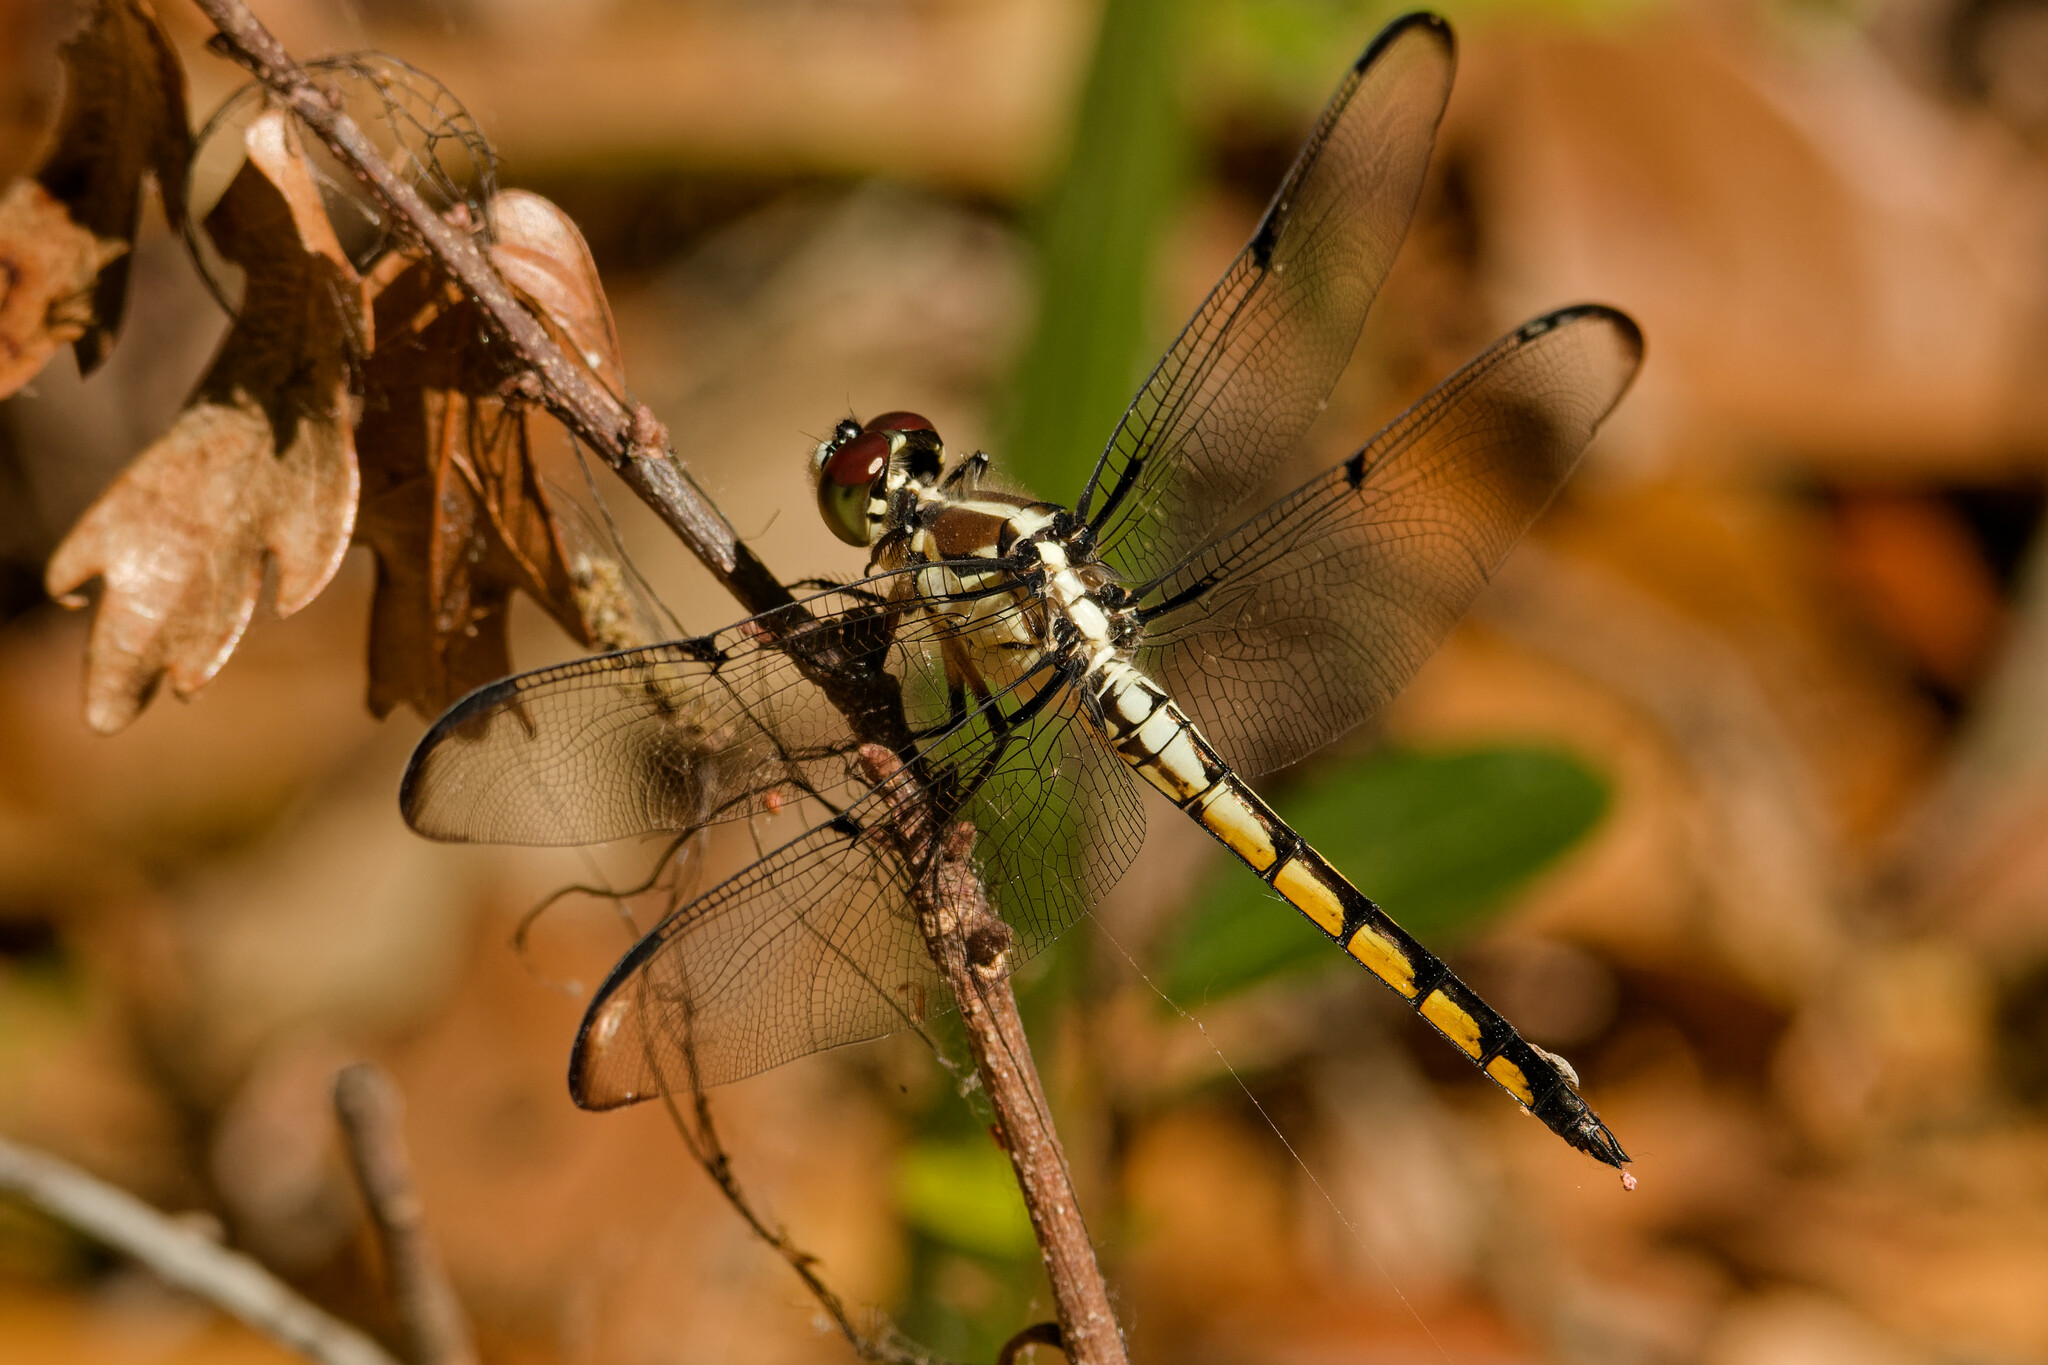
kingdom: Animalia
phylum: Arthropoda
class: Insecta
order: Odonata
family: Libellulidae
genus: Libellula
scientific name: Libellula vibrans
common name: Great blue skimmer
